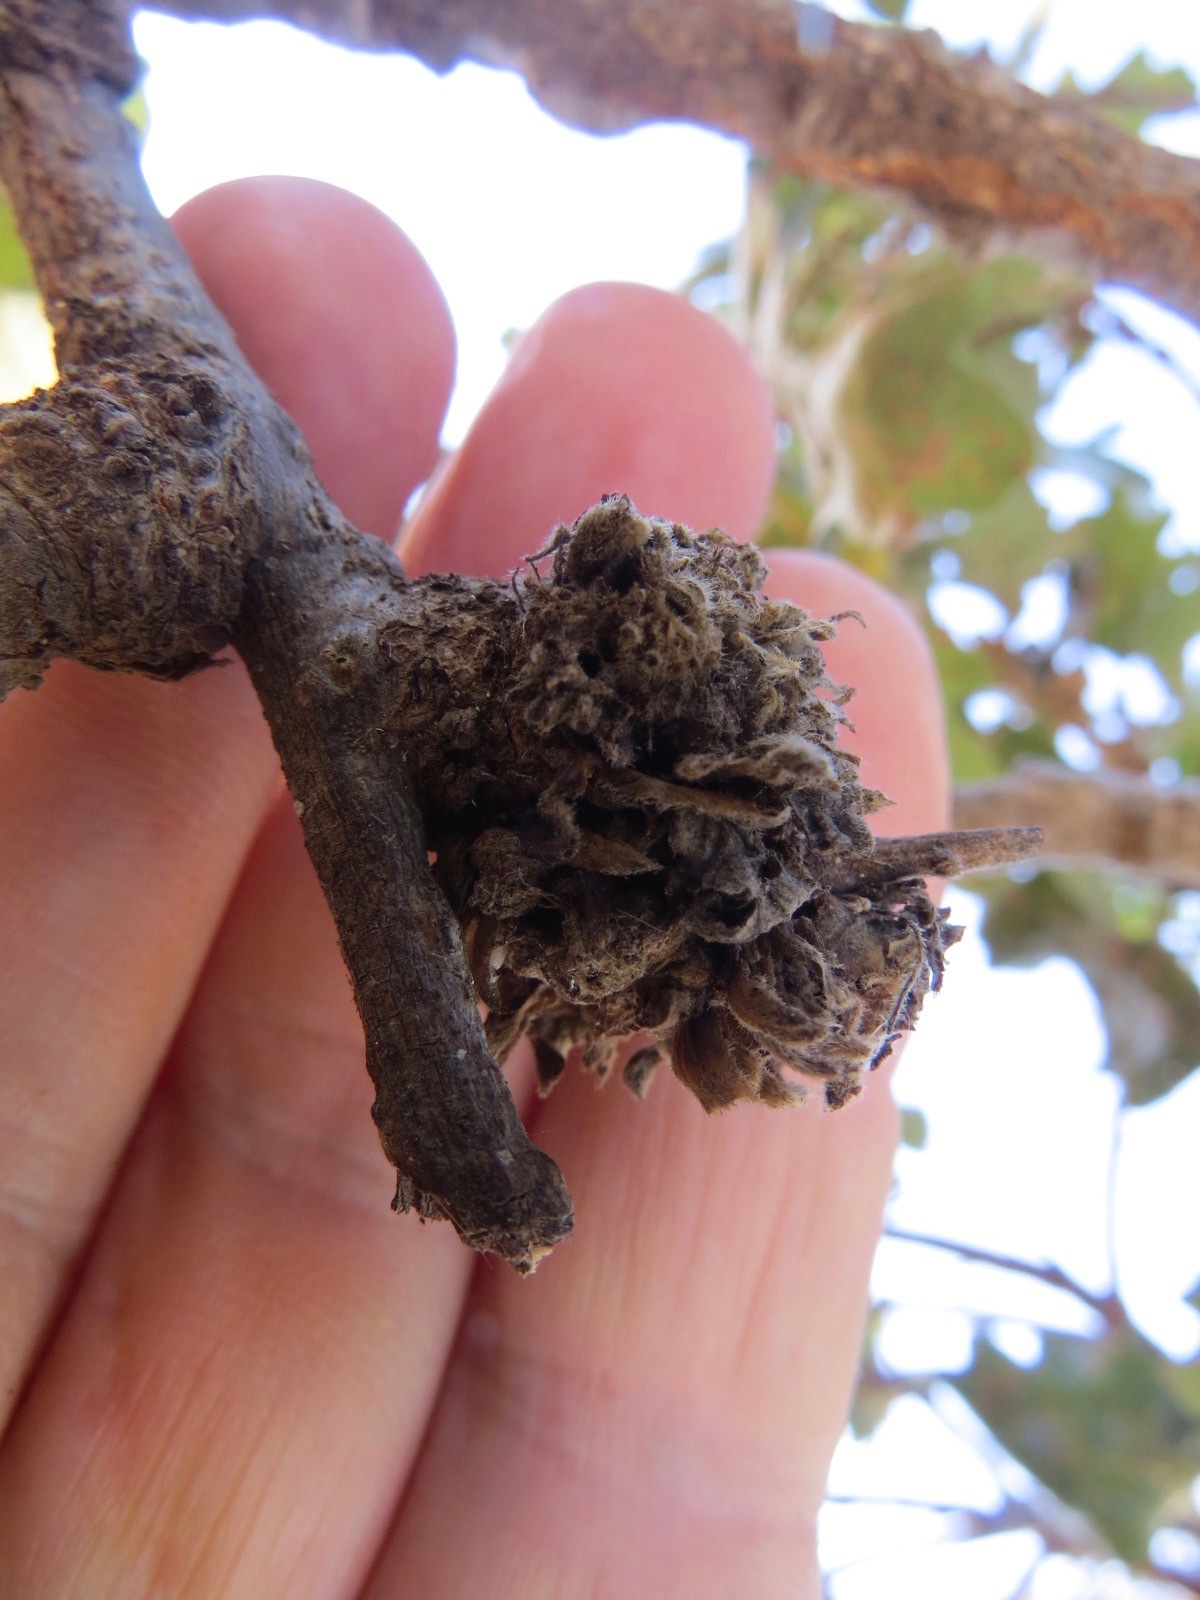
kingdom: Animalia
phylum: Arthropoda
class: Insecta
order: Hymenoptera
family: Cynipidae
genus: Andricus
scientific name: Andricus
